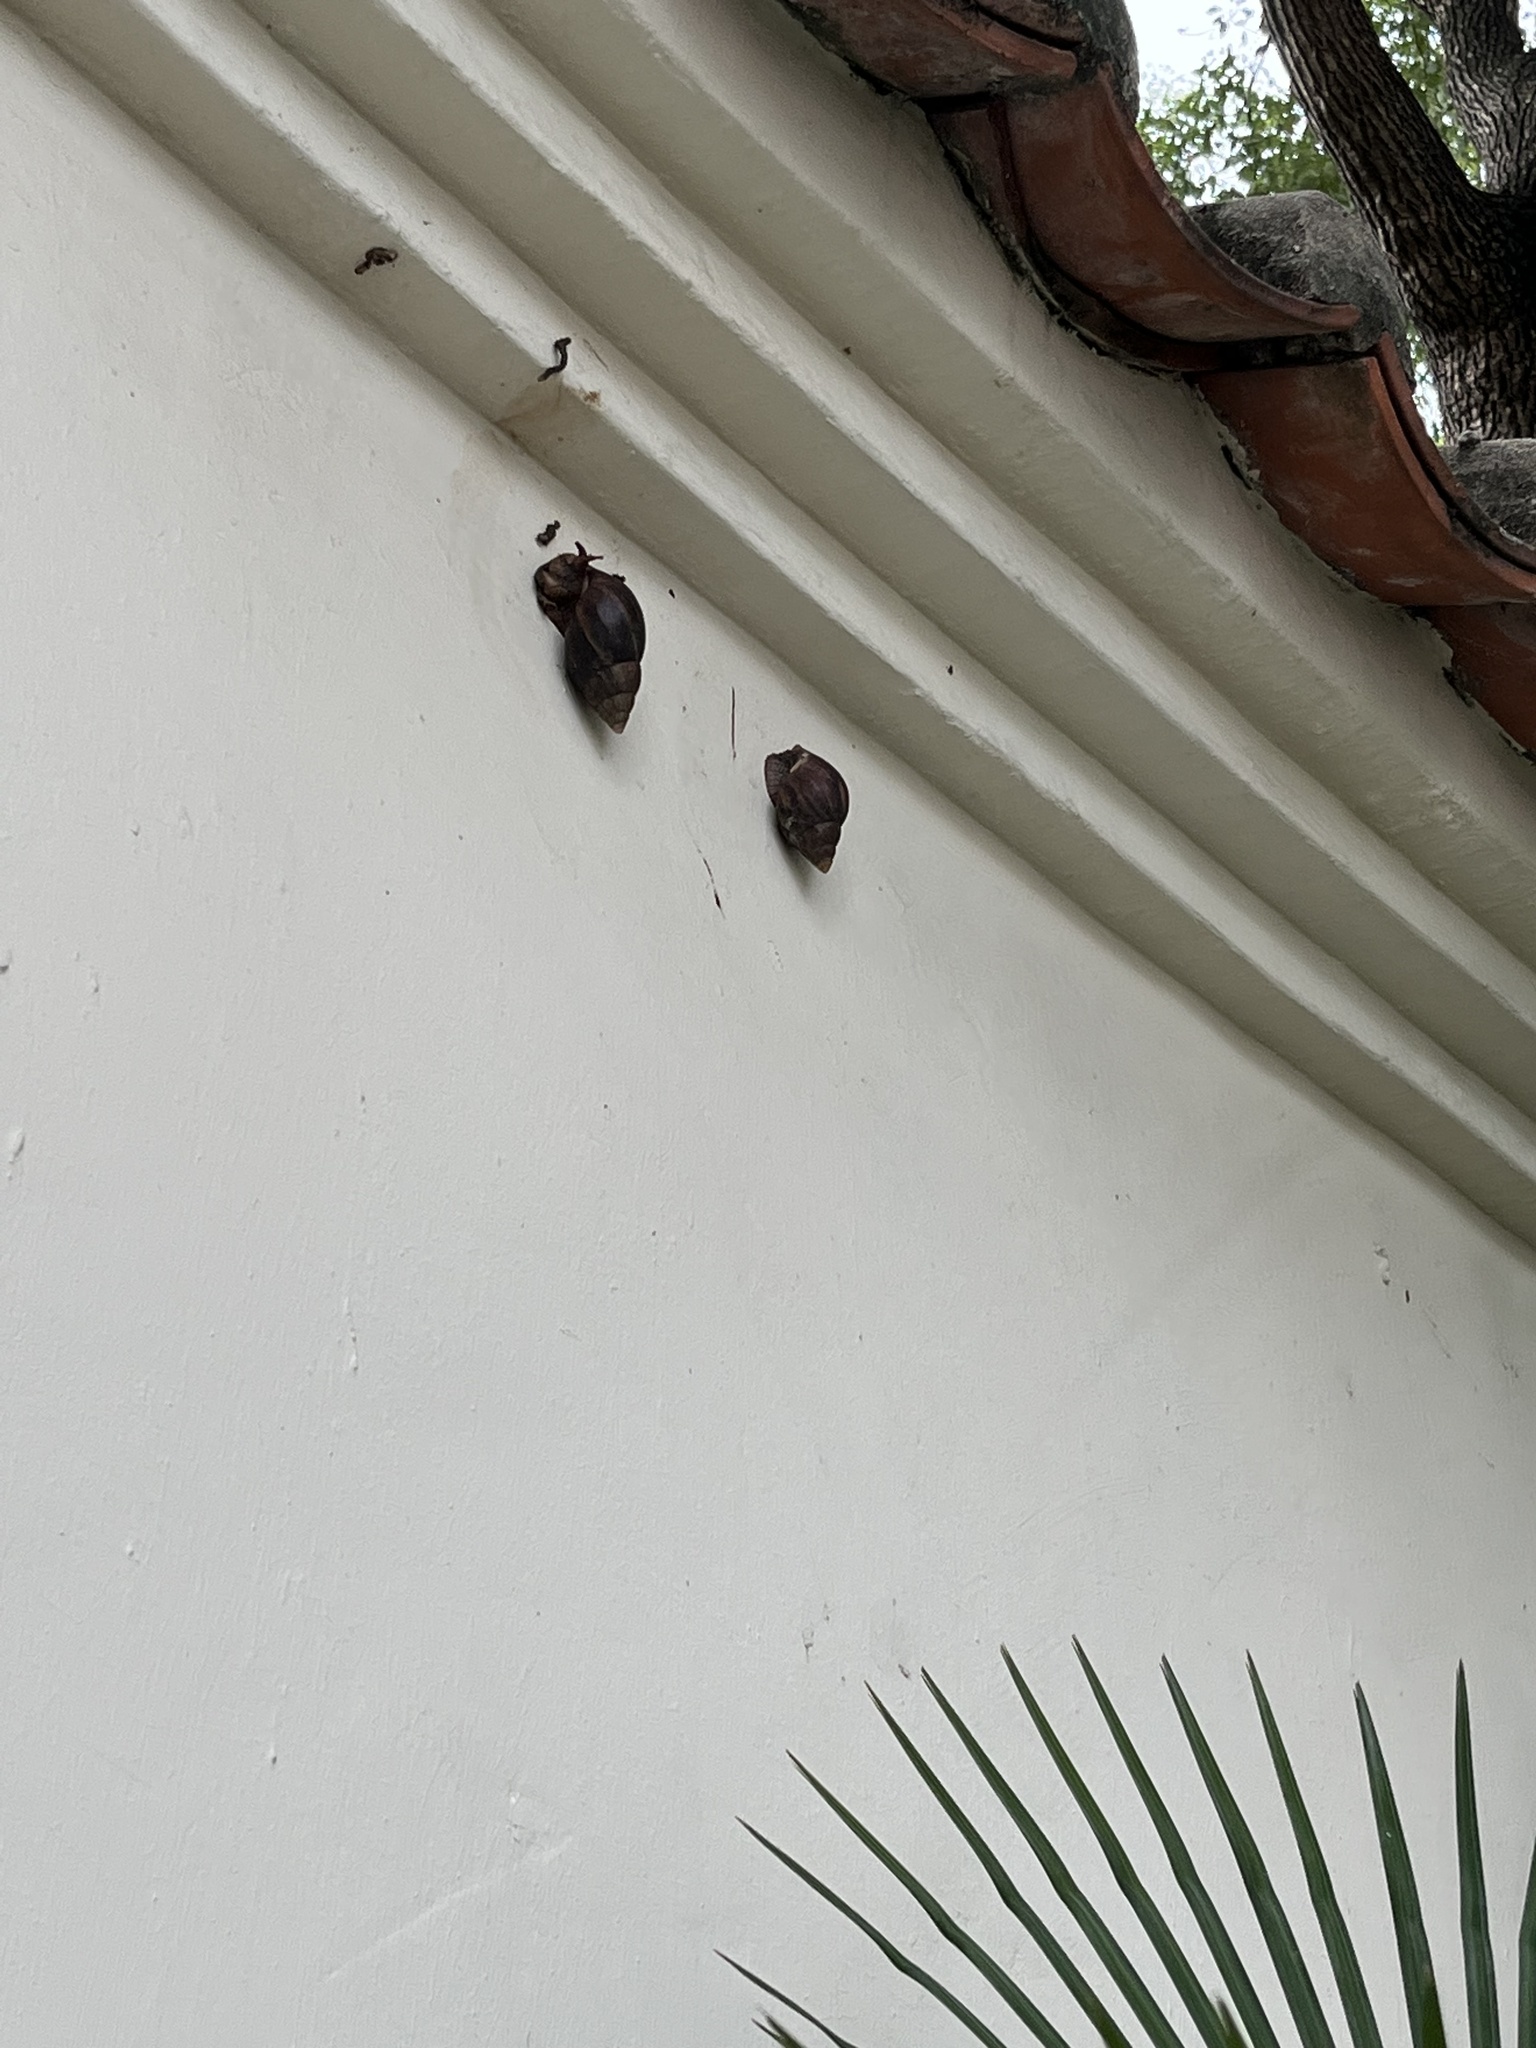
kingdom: Animalia
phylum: Mollusca
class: Gastropoda
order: Stylommatophora
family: Achatinidae
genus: Lissachatina
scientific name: Lissachatina immaculata
